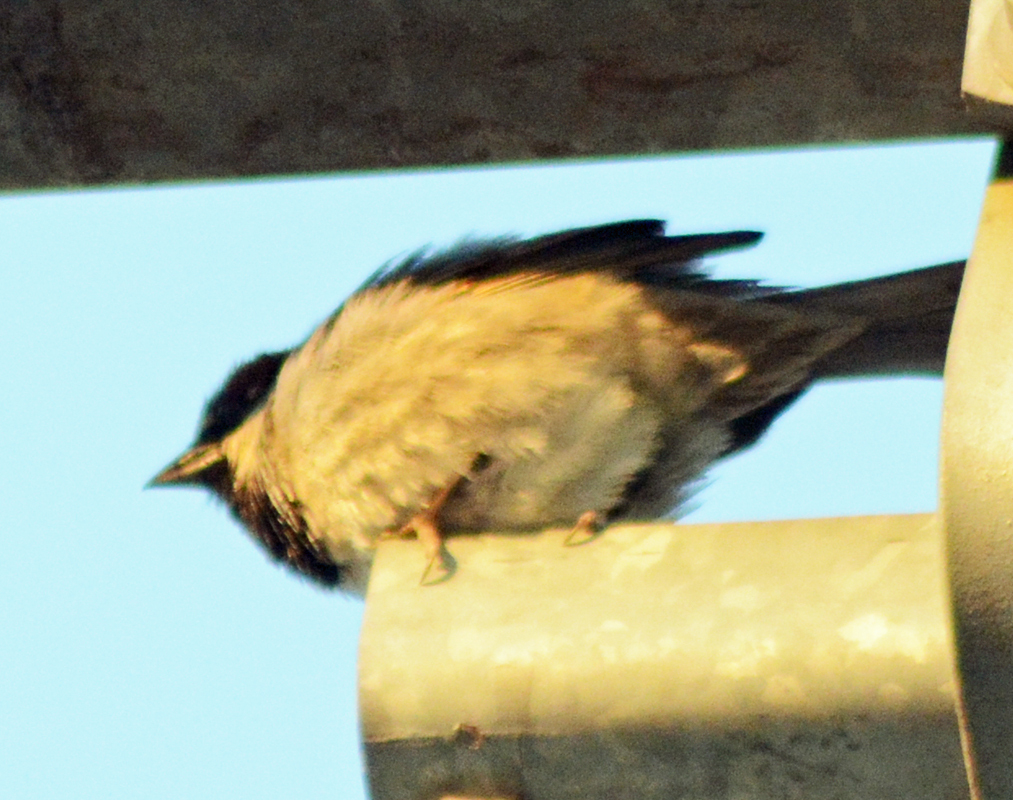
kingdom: Animalia
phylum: Chordata
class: Aves
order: Passeriformes
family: Passeridae
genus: Passer
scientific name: Passer domesticus
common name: House sparrow
